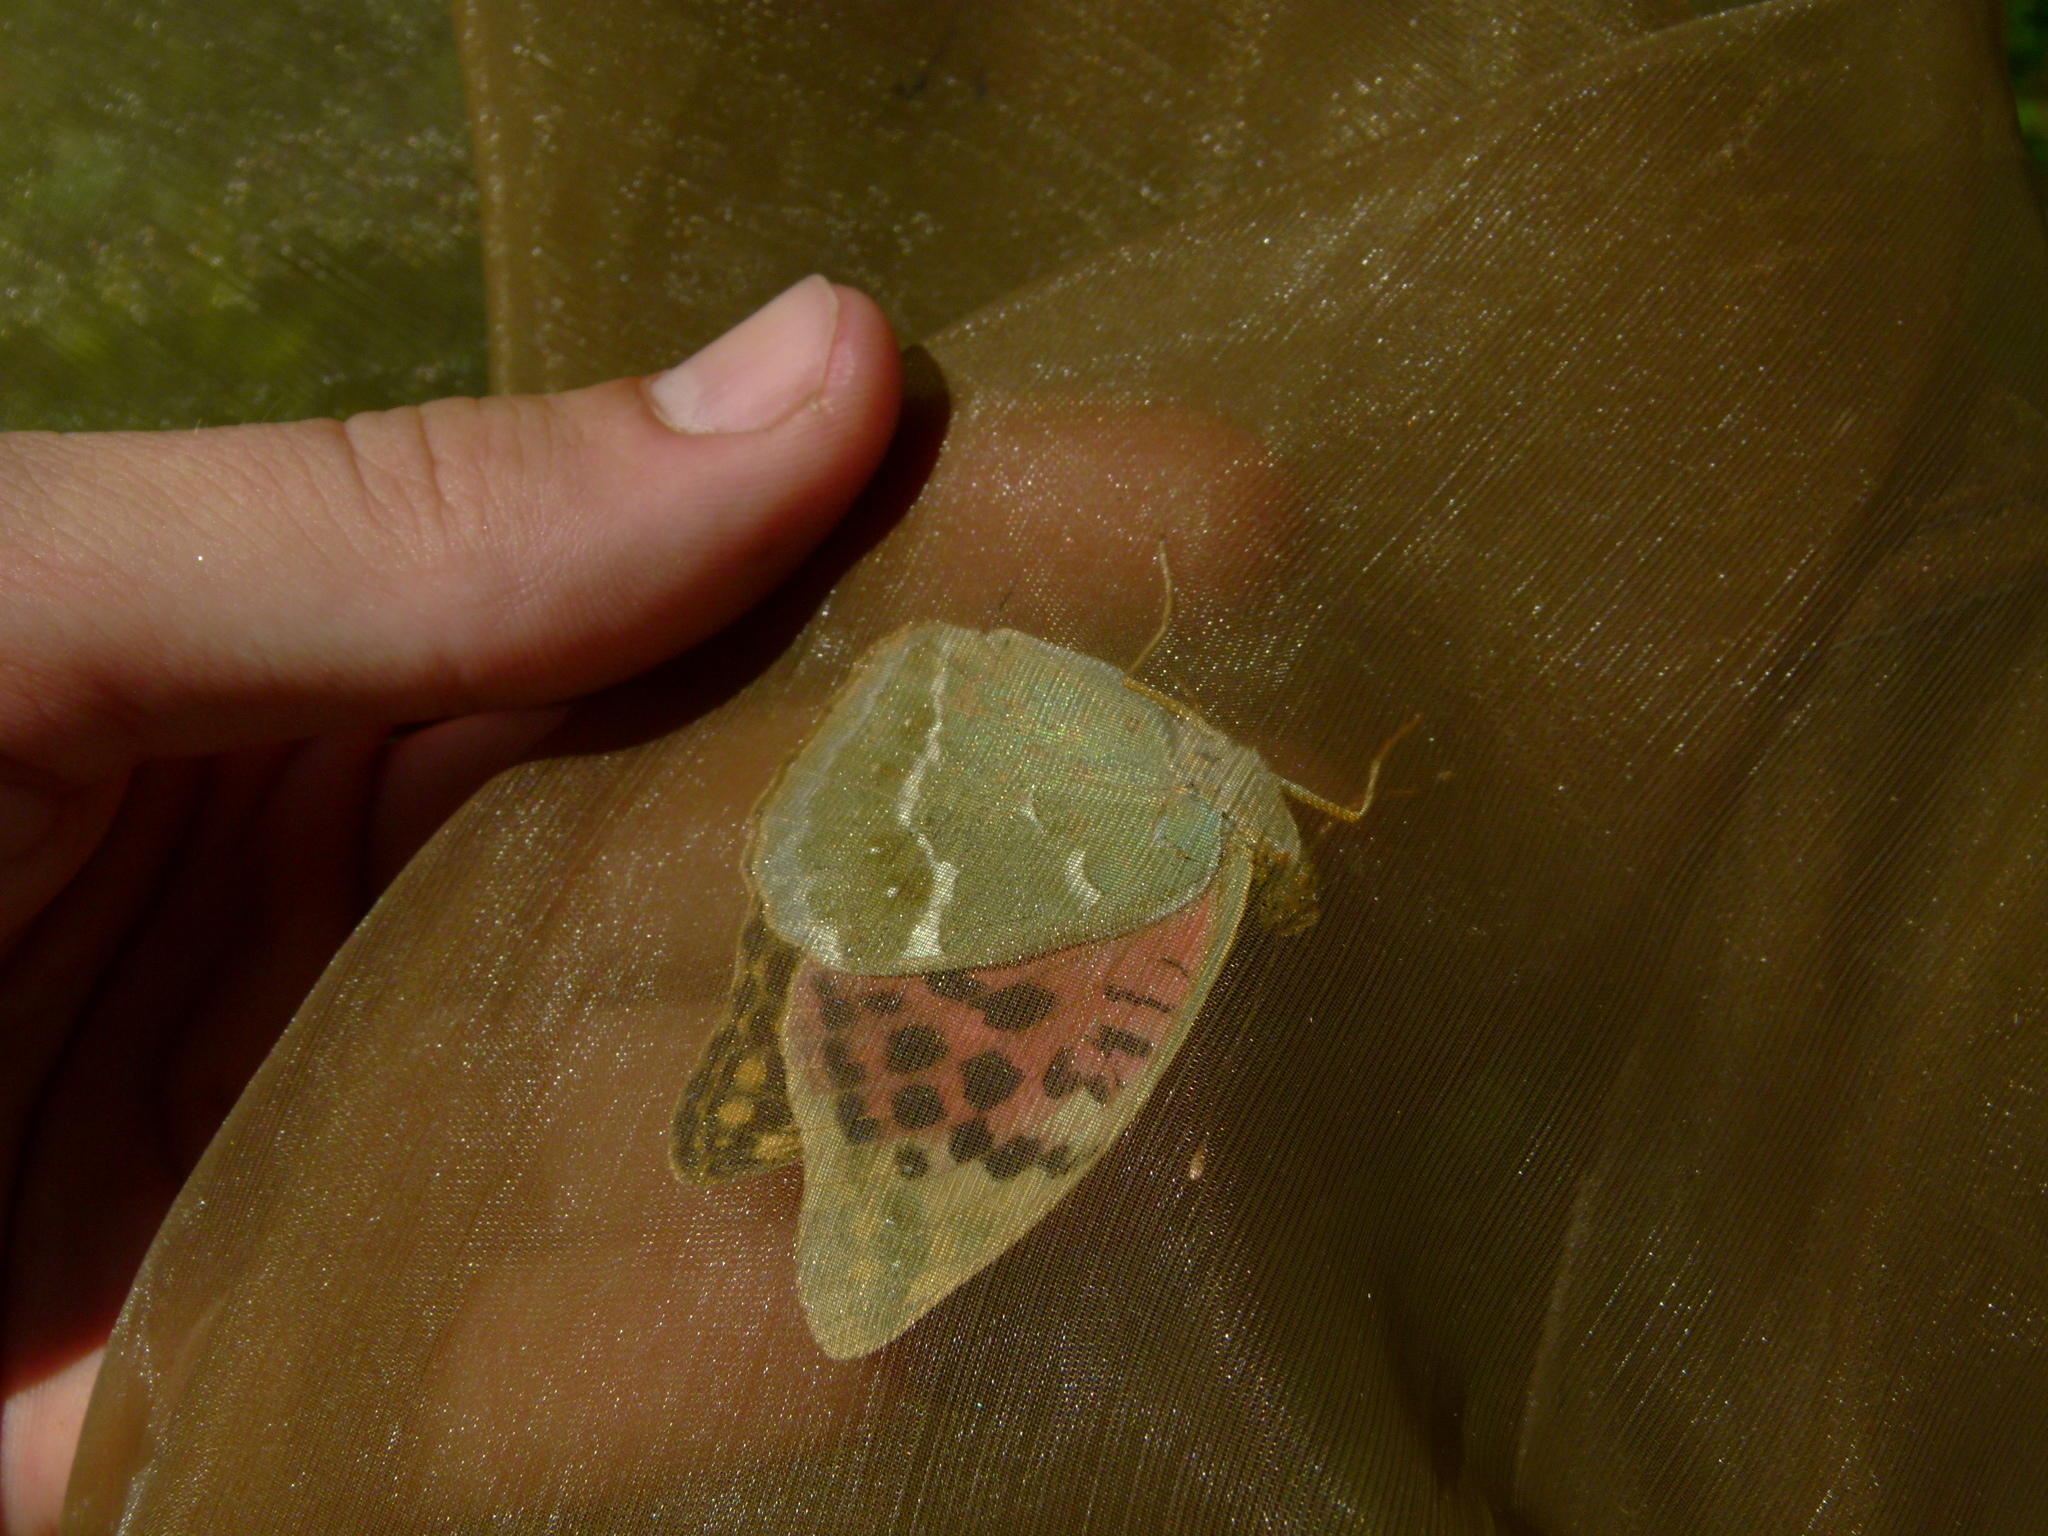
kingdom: Animalia
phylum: Arthropoda
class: Insecta
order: Lepidoptera
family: Nymphalidae
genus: Damora
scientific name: Damora pandora
